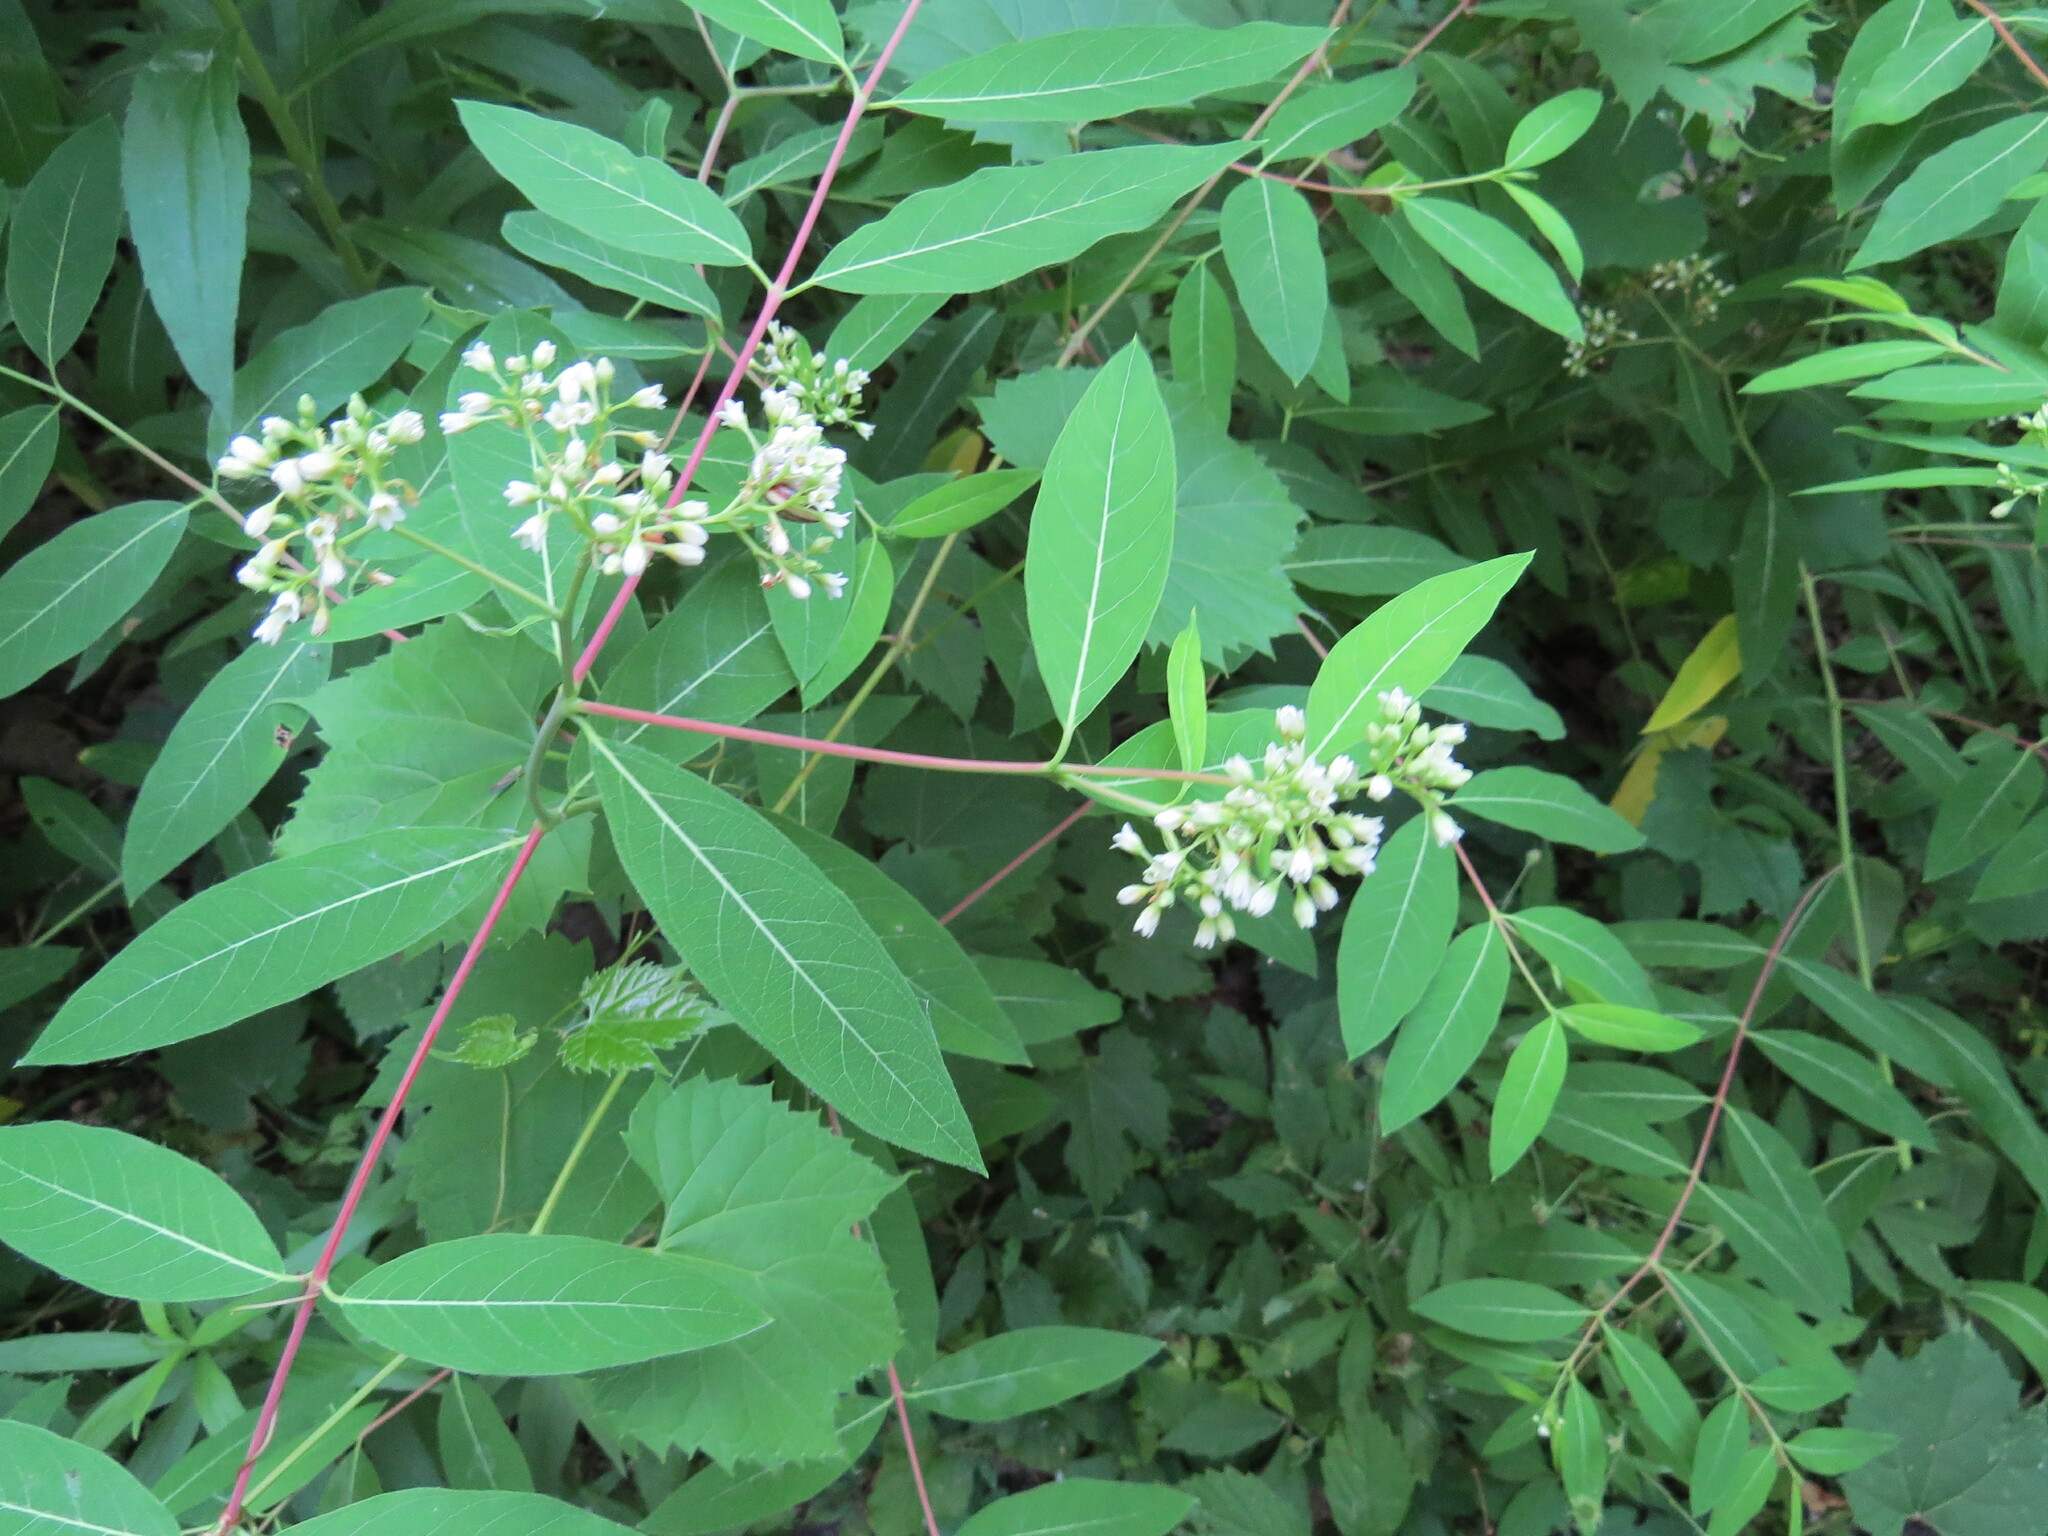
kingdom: Plantae
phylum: Tracheophyta
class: Magnoliopsida
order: Gentianales
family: Apocynaceae
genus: Apocynum
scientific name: Apocynum cannabinum
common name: Hemp dogbane
